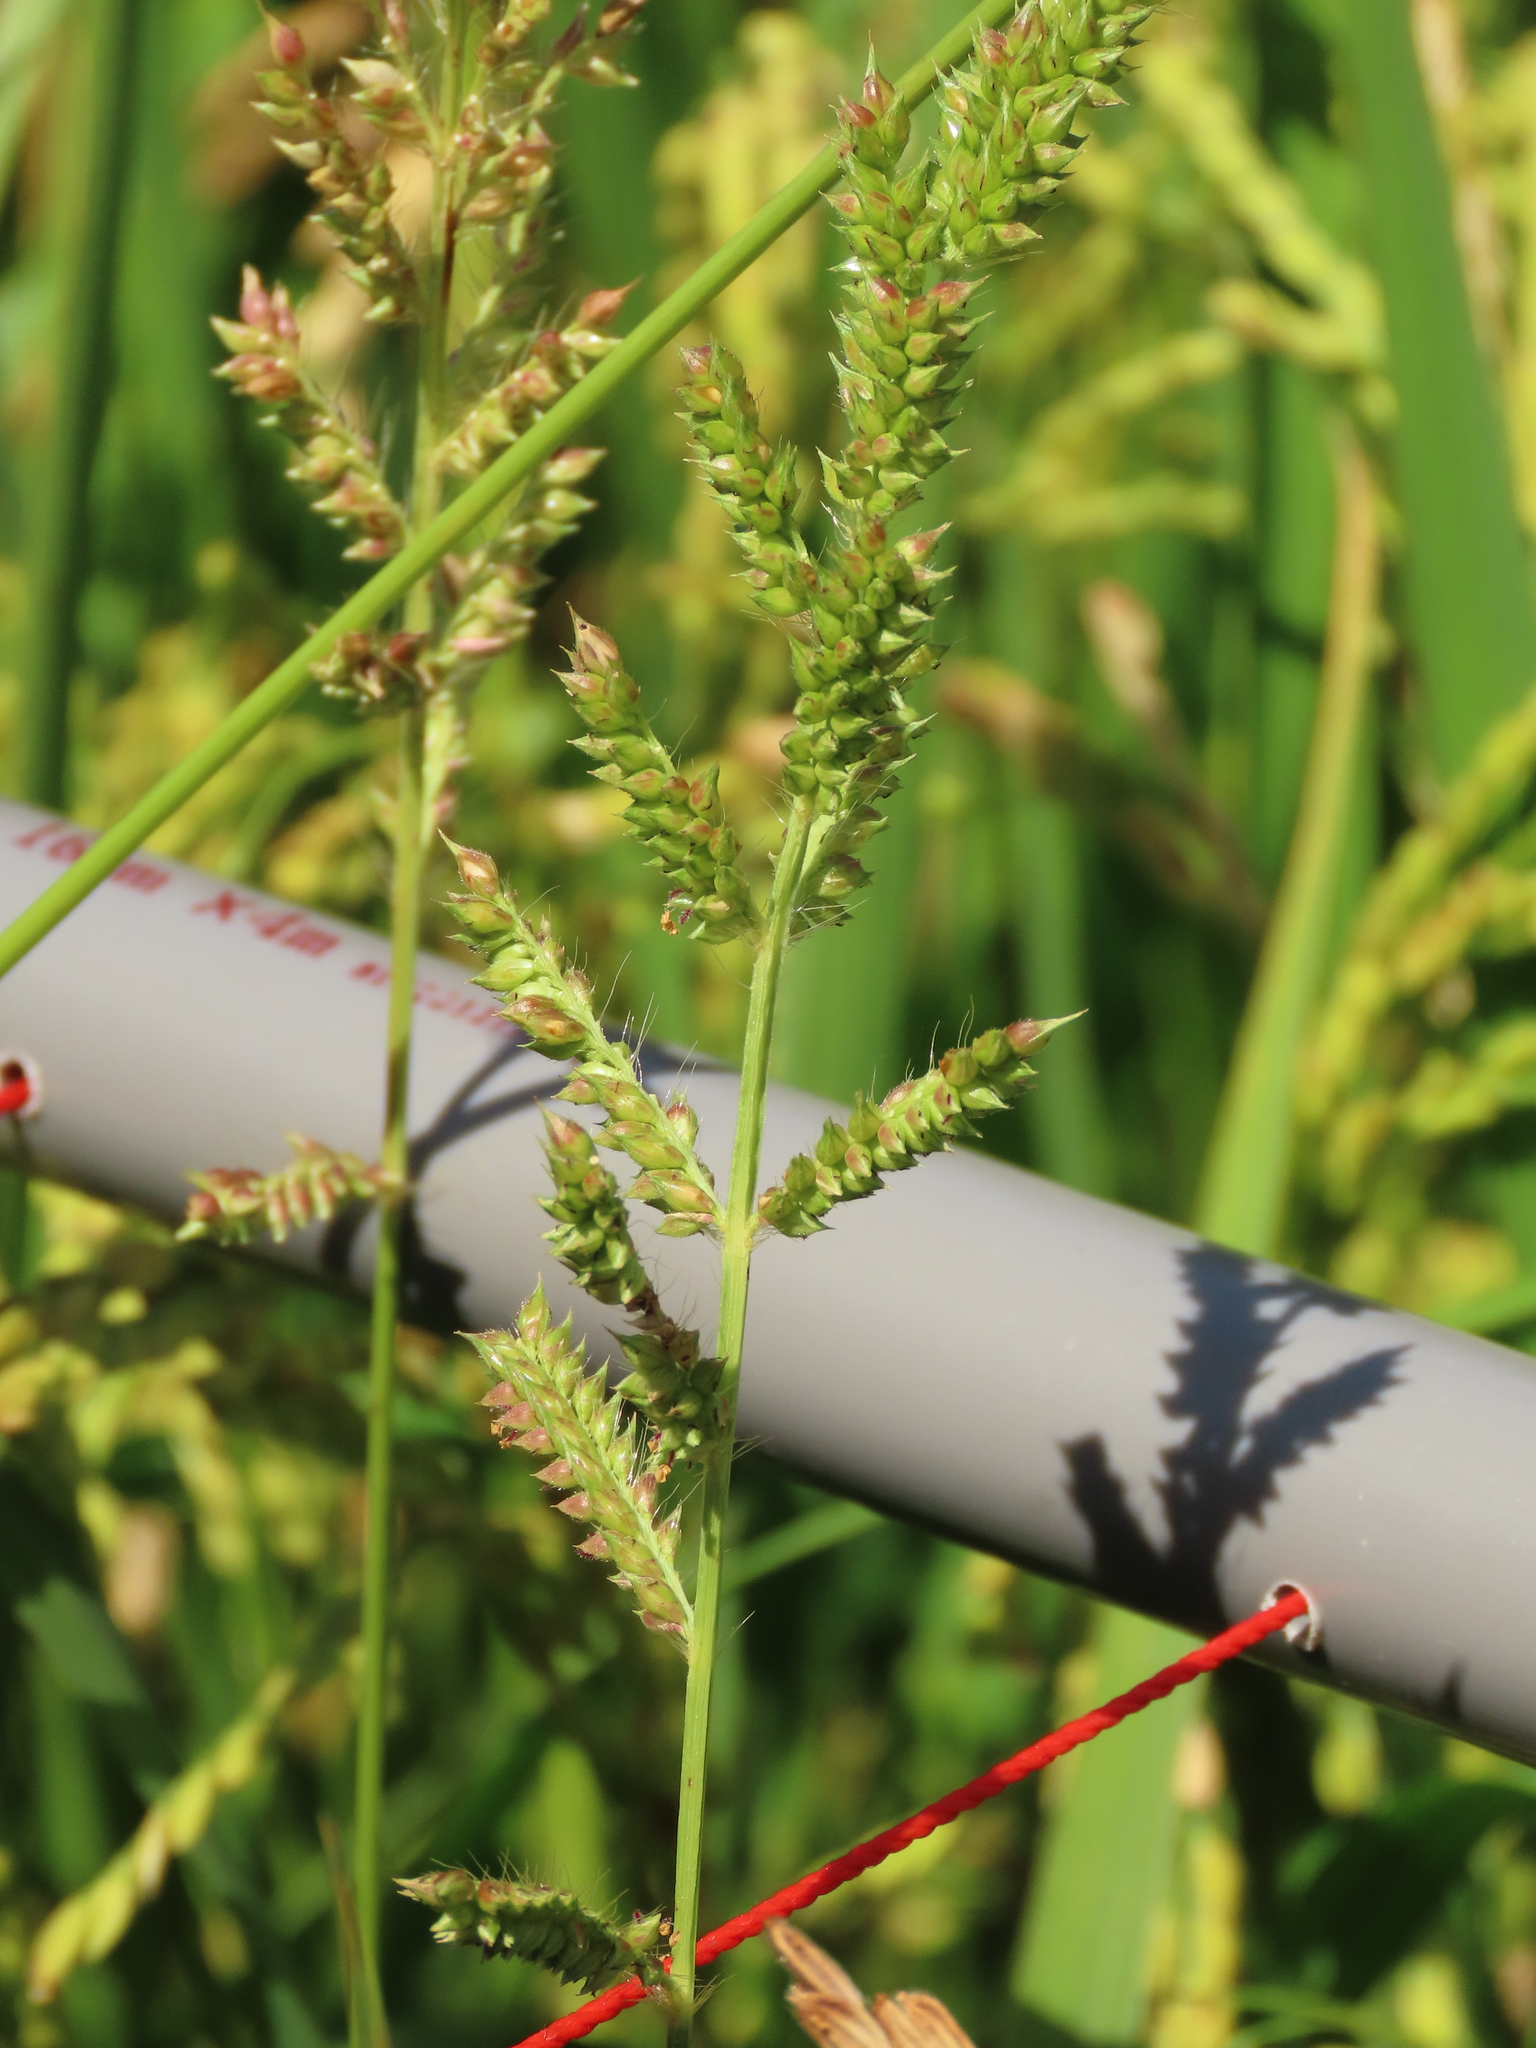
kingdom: Plantae
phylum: Tracheophyta
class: Liliopsida
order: Poales
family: Poaceae
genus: Echinochloa
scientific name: Echinochloa crus-galli
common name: Cockspur
